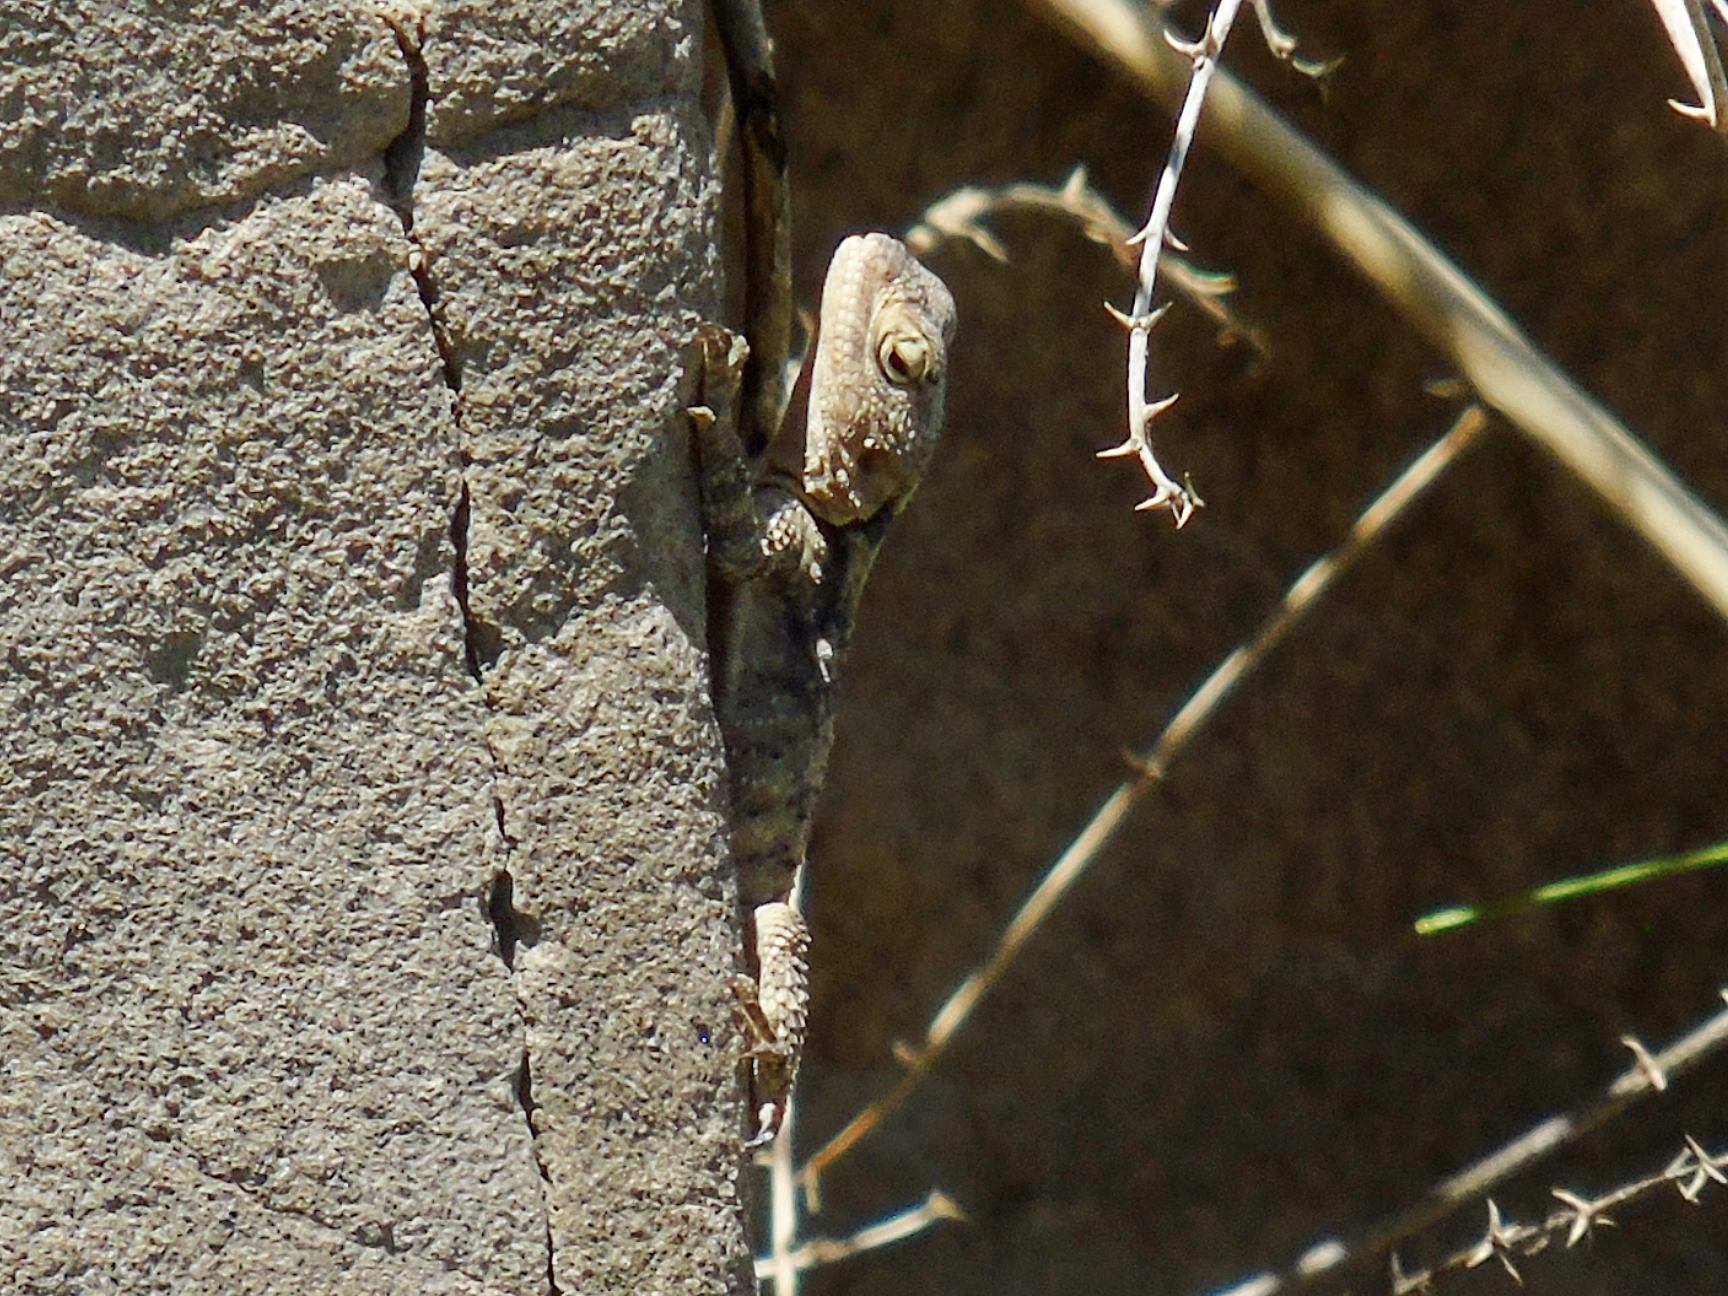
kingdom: Animalia
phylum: Chordata
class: Squamata
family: Agamidae
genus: Stellagama
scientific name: Stellagama stellio
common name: Starred agama
